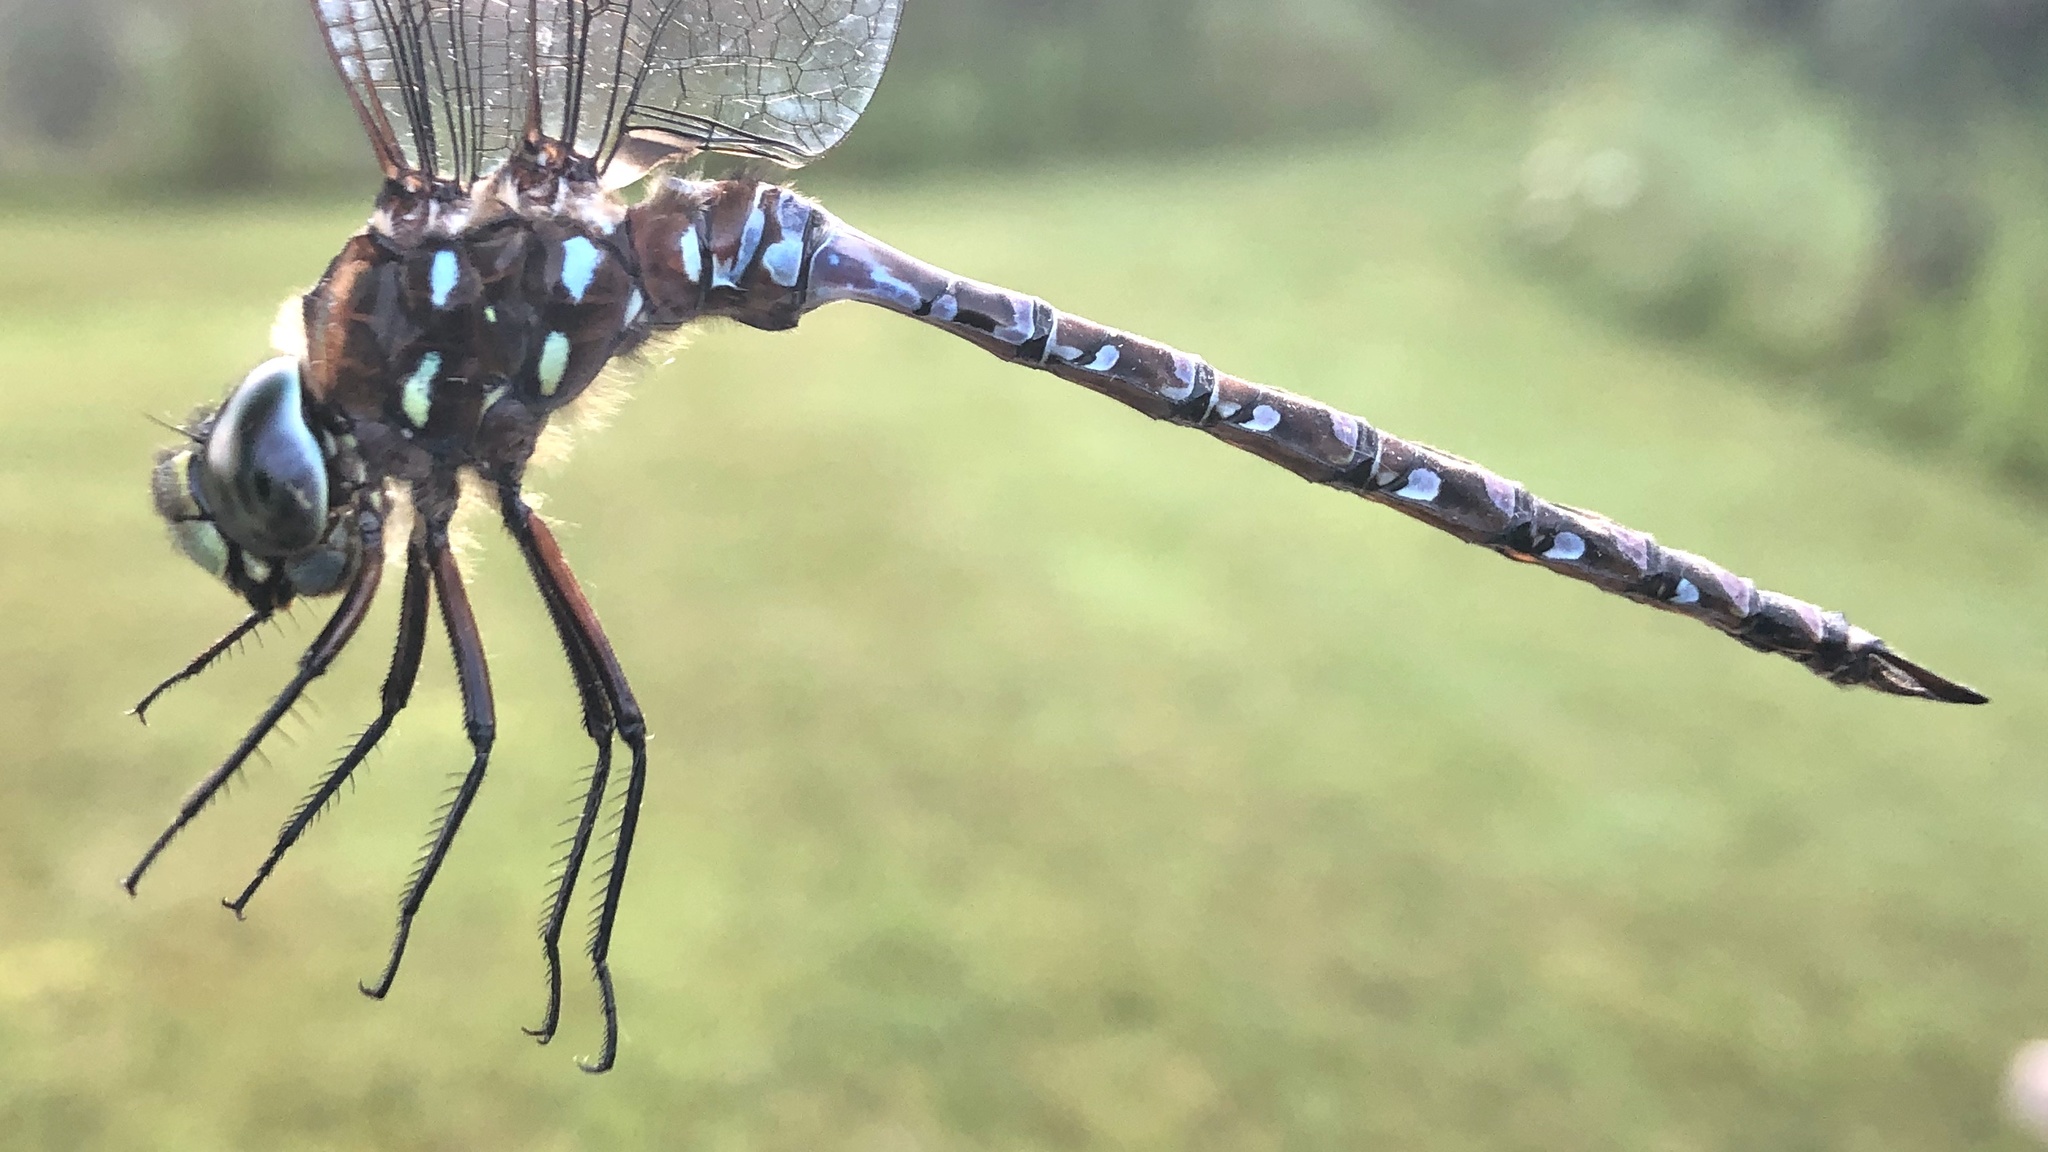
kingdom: Animalia
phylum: Arthropoda
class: Insecta
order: Odonata
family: Aeshnidae
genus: Aeshna
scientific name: Aeshna interrupta
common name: Variable darner
